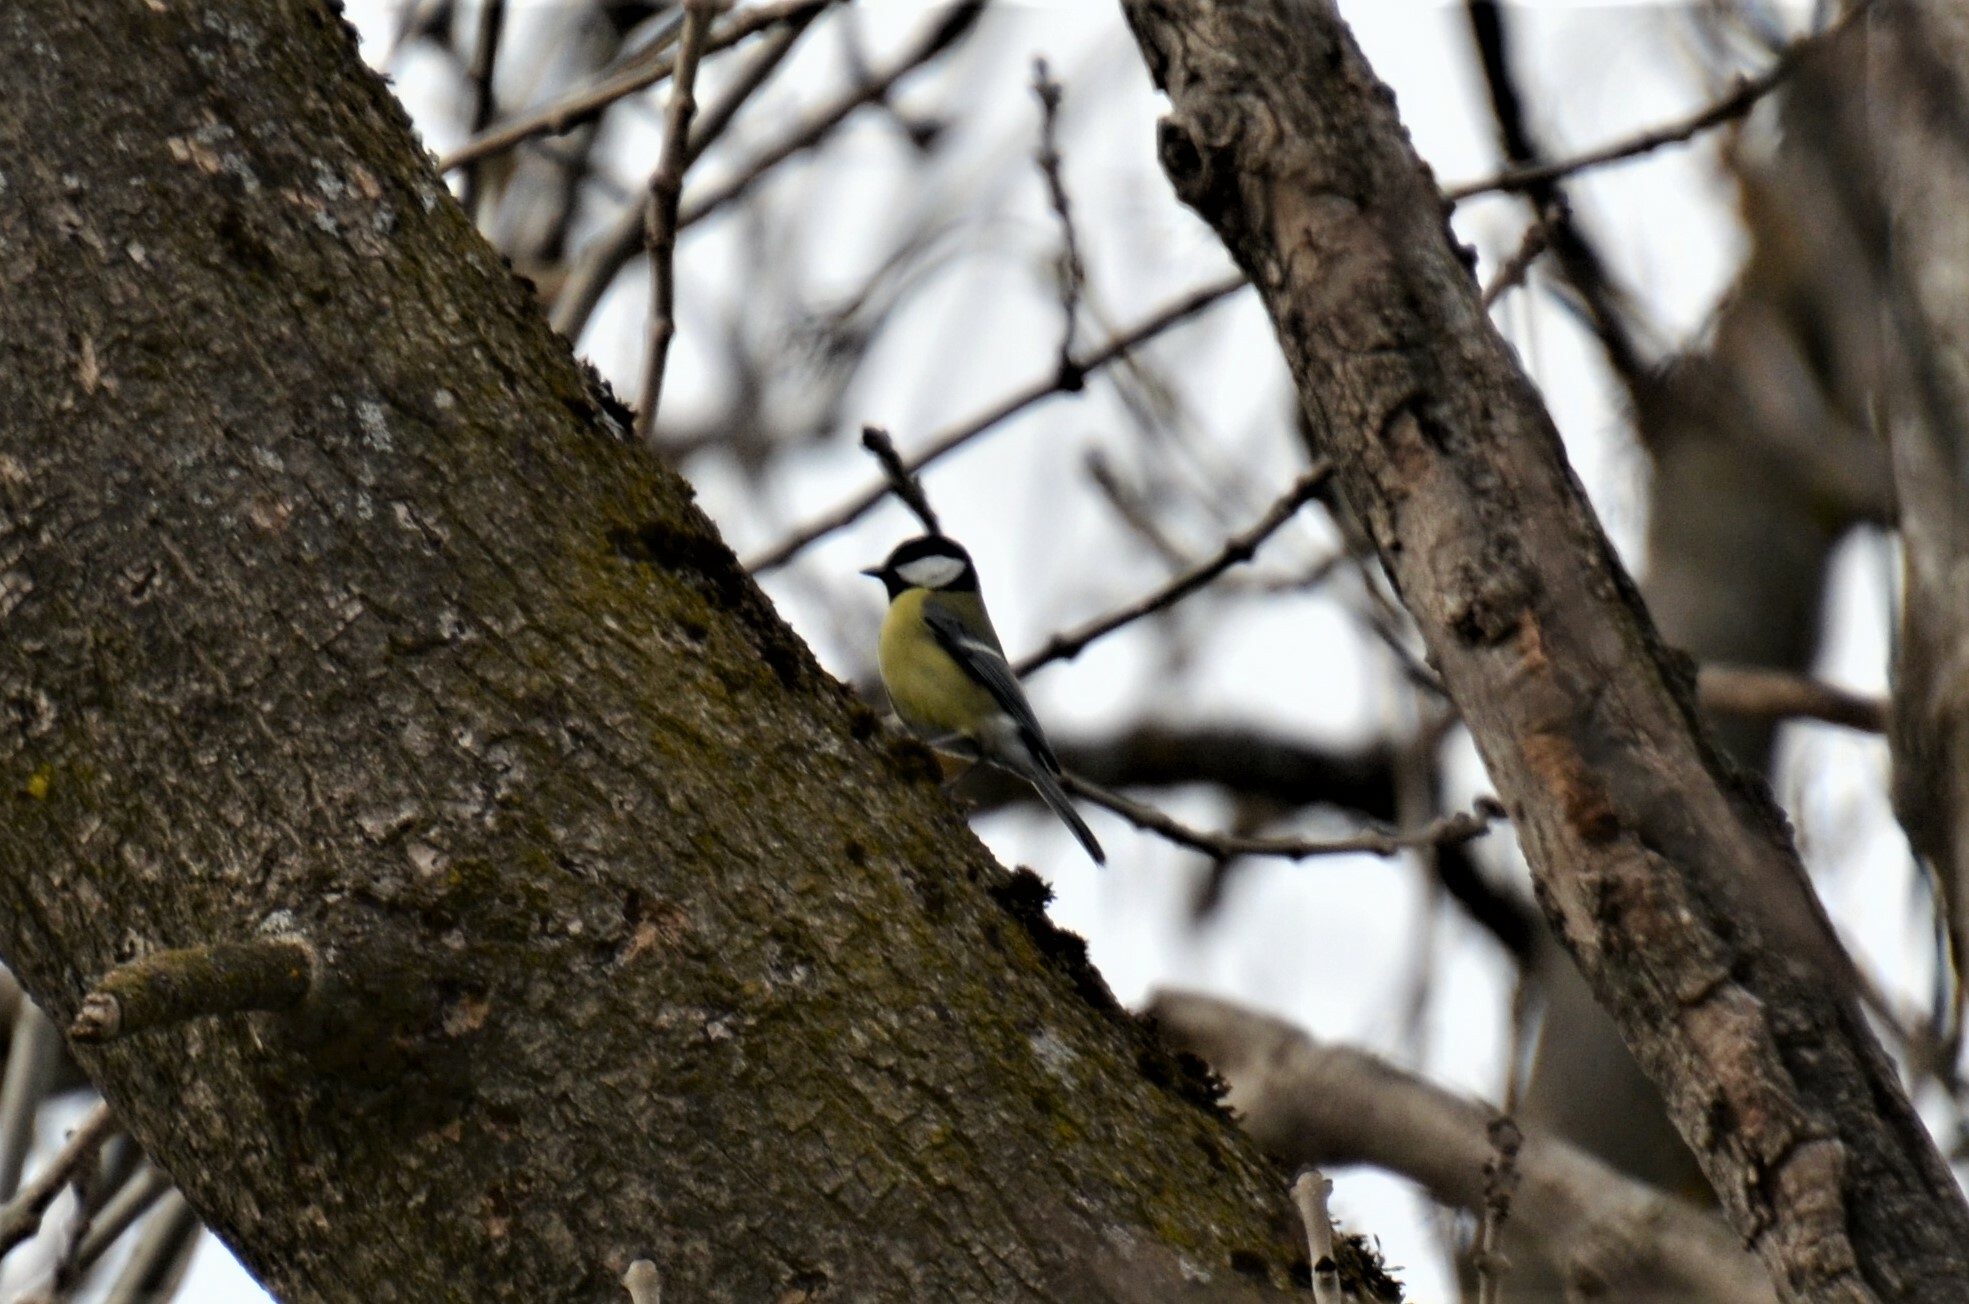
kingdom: Animalia
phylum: Chordata
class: Aves
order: Passeriformes
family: Paridae
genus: Parus
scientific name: Parus major
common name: Great tit
